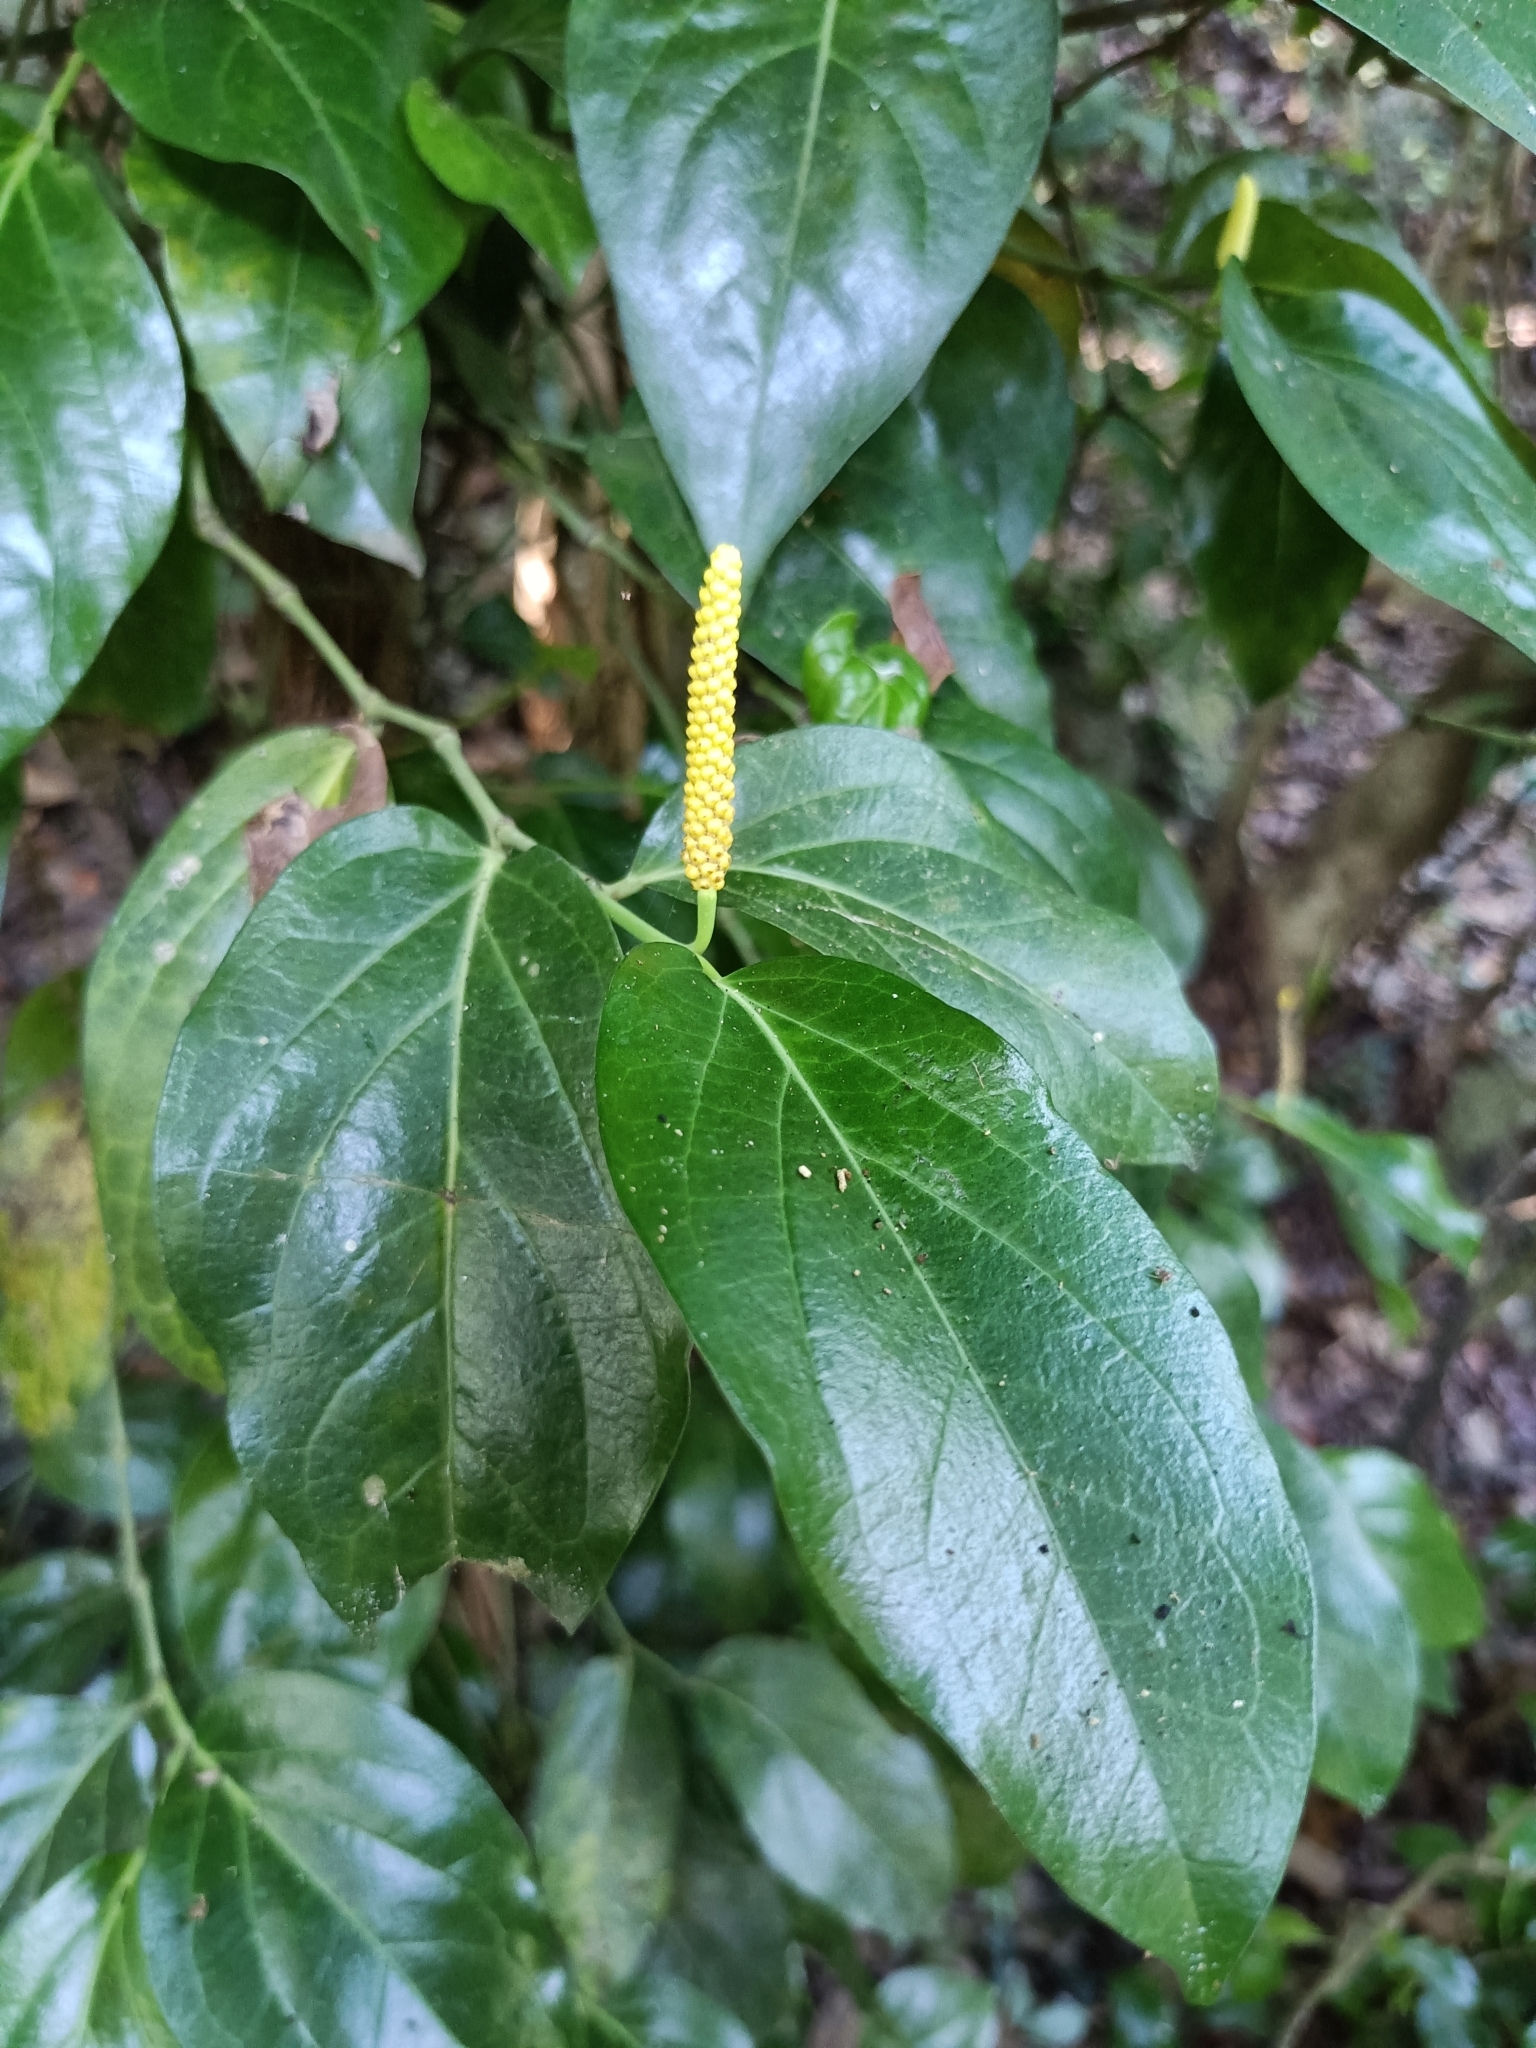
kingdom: Plantae
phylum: Tracheophyta
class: Magnoliopsida
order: Piperales
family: Piperaceae
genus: Piper
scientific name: Piper kawakamii
